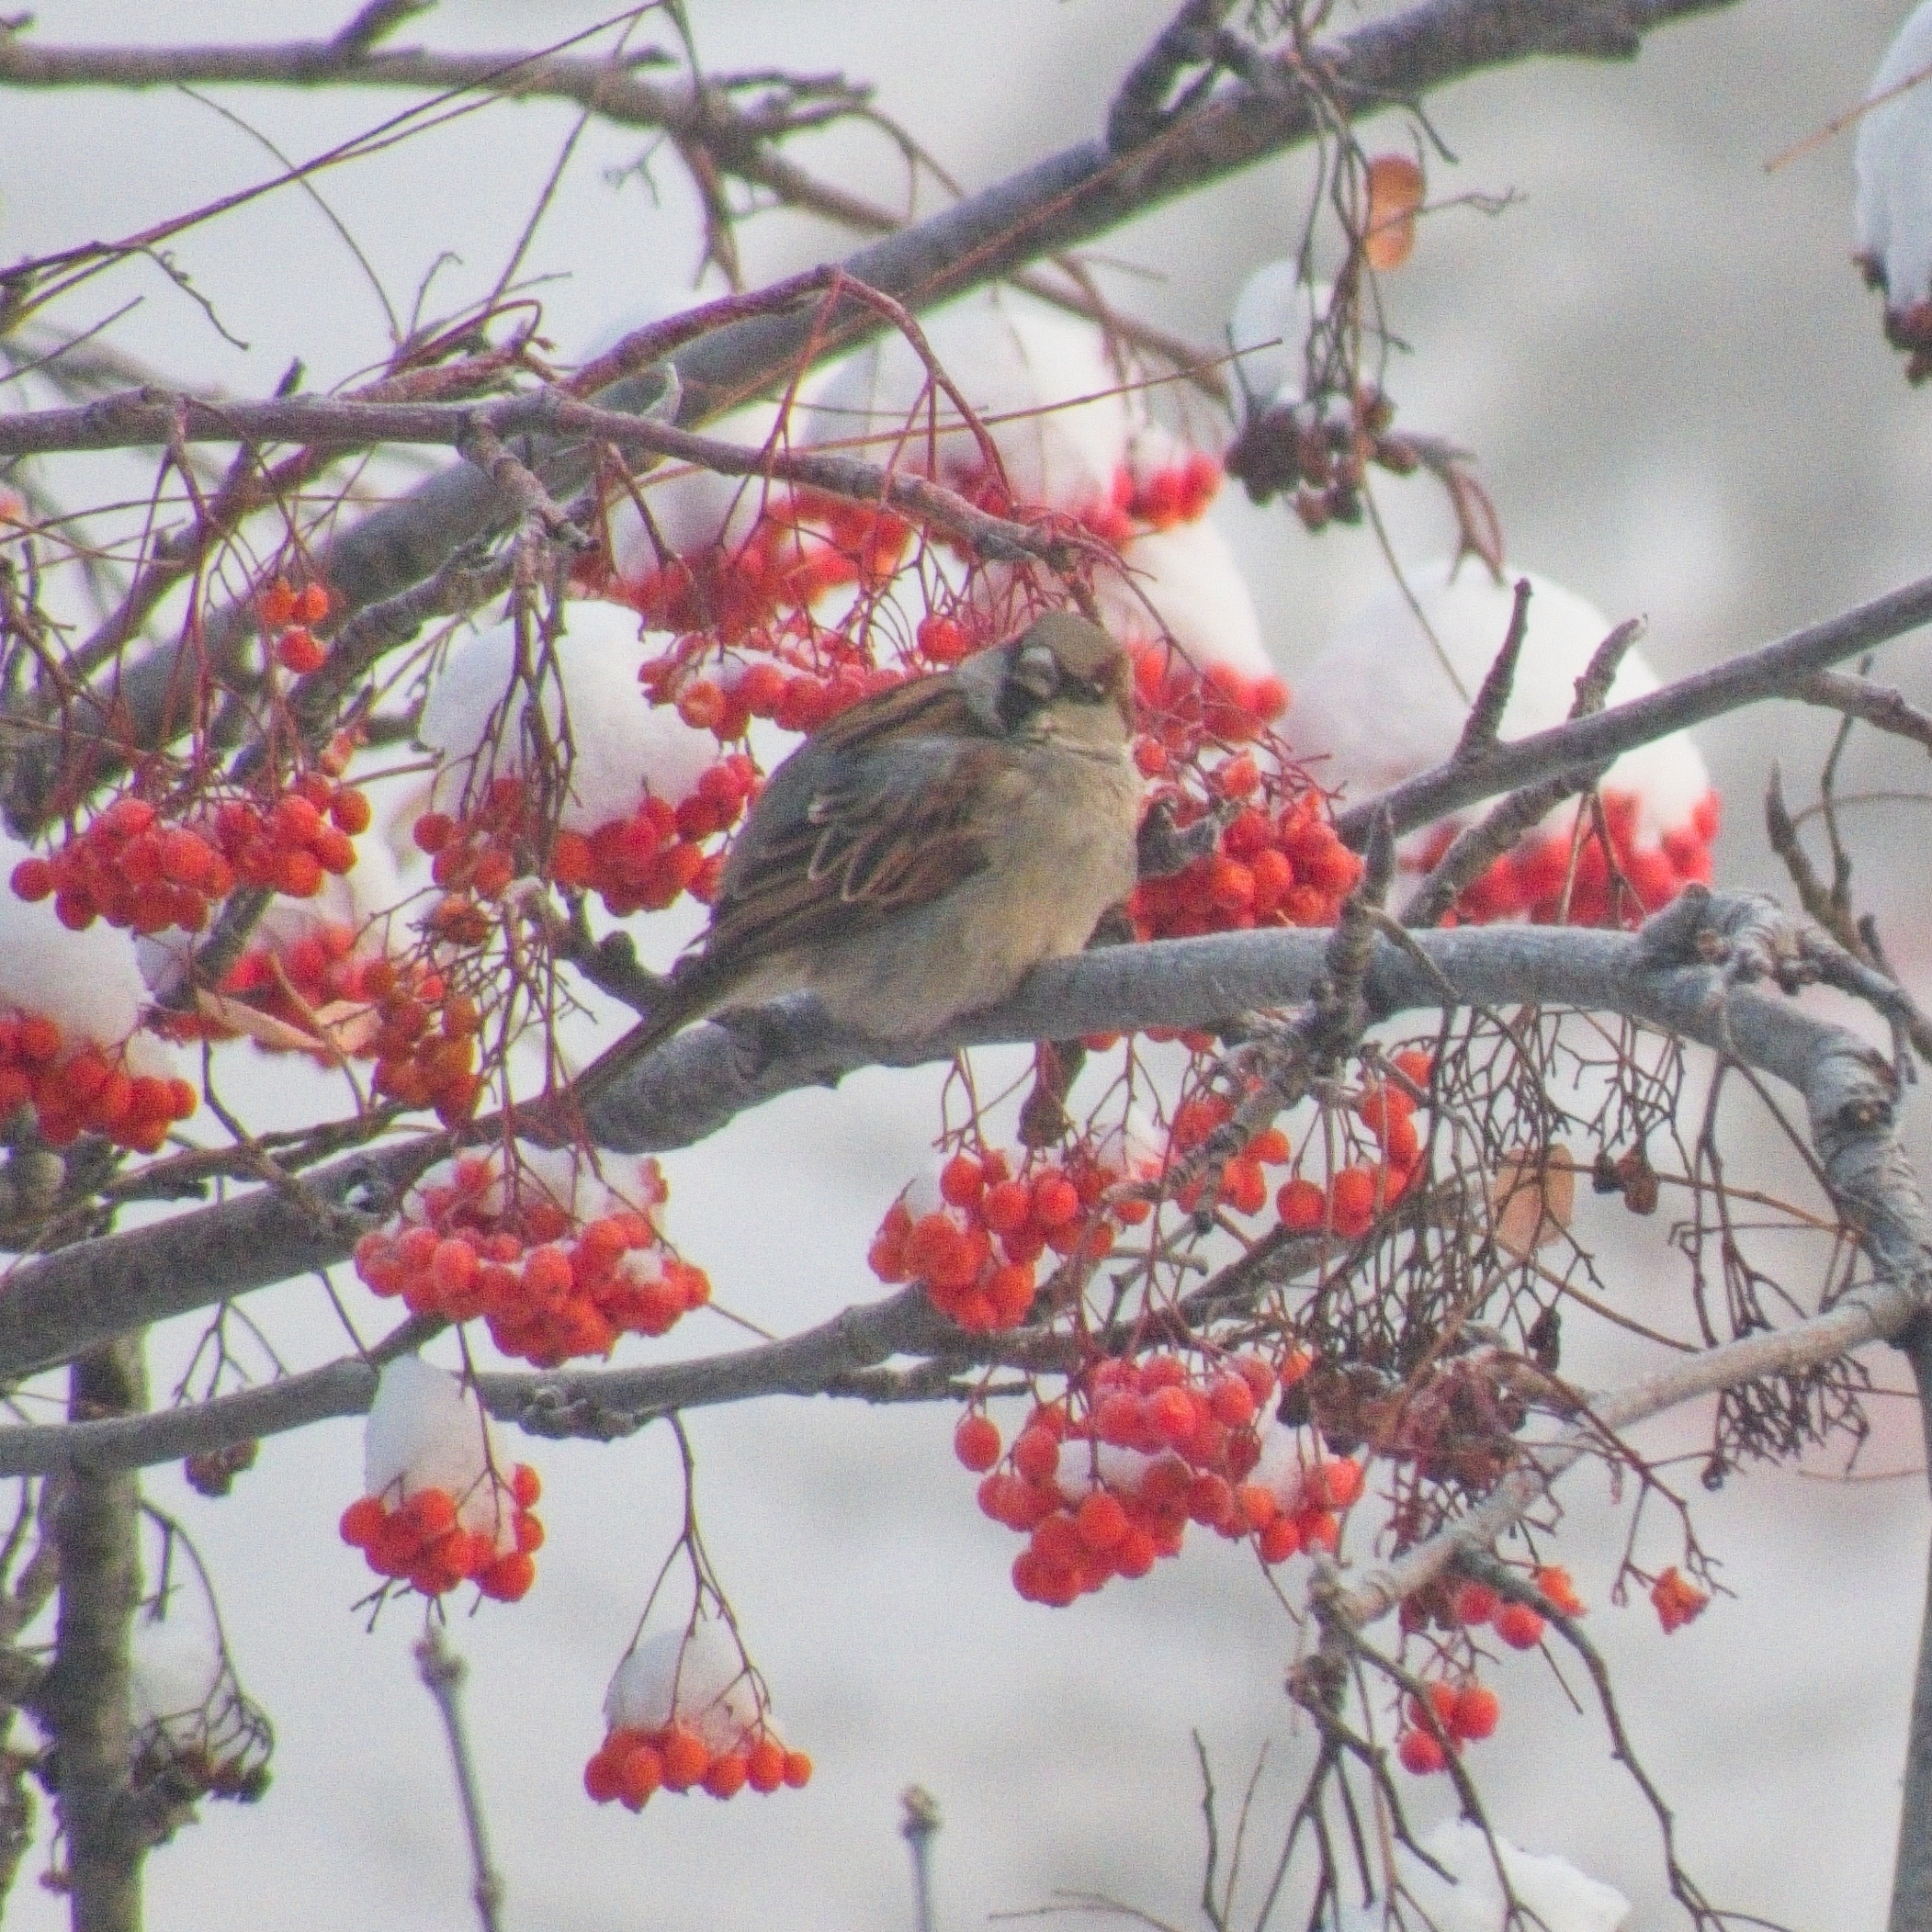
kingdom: Animalia
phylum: Chordata
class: Aves
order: Passeriformes
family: Passeridae
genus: Passer
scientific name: Passer domesticus
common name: House sparrow
